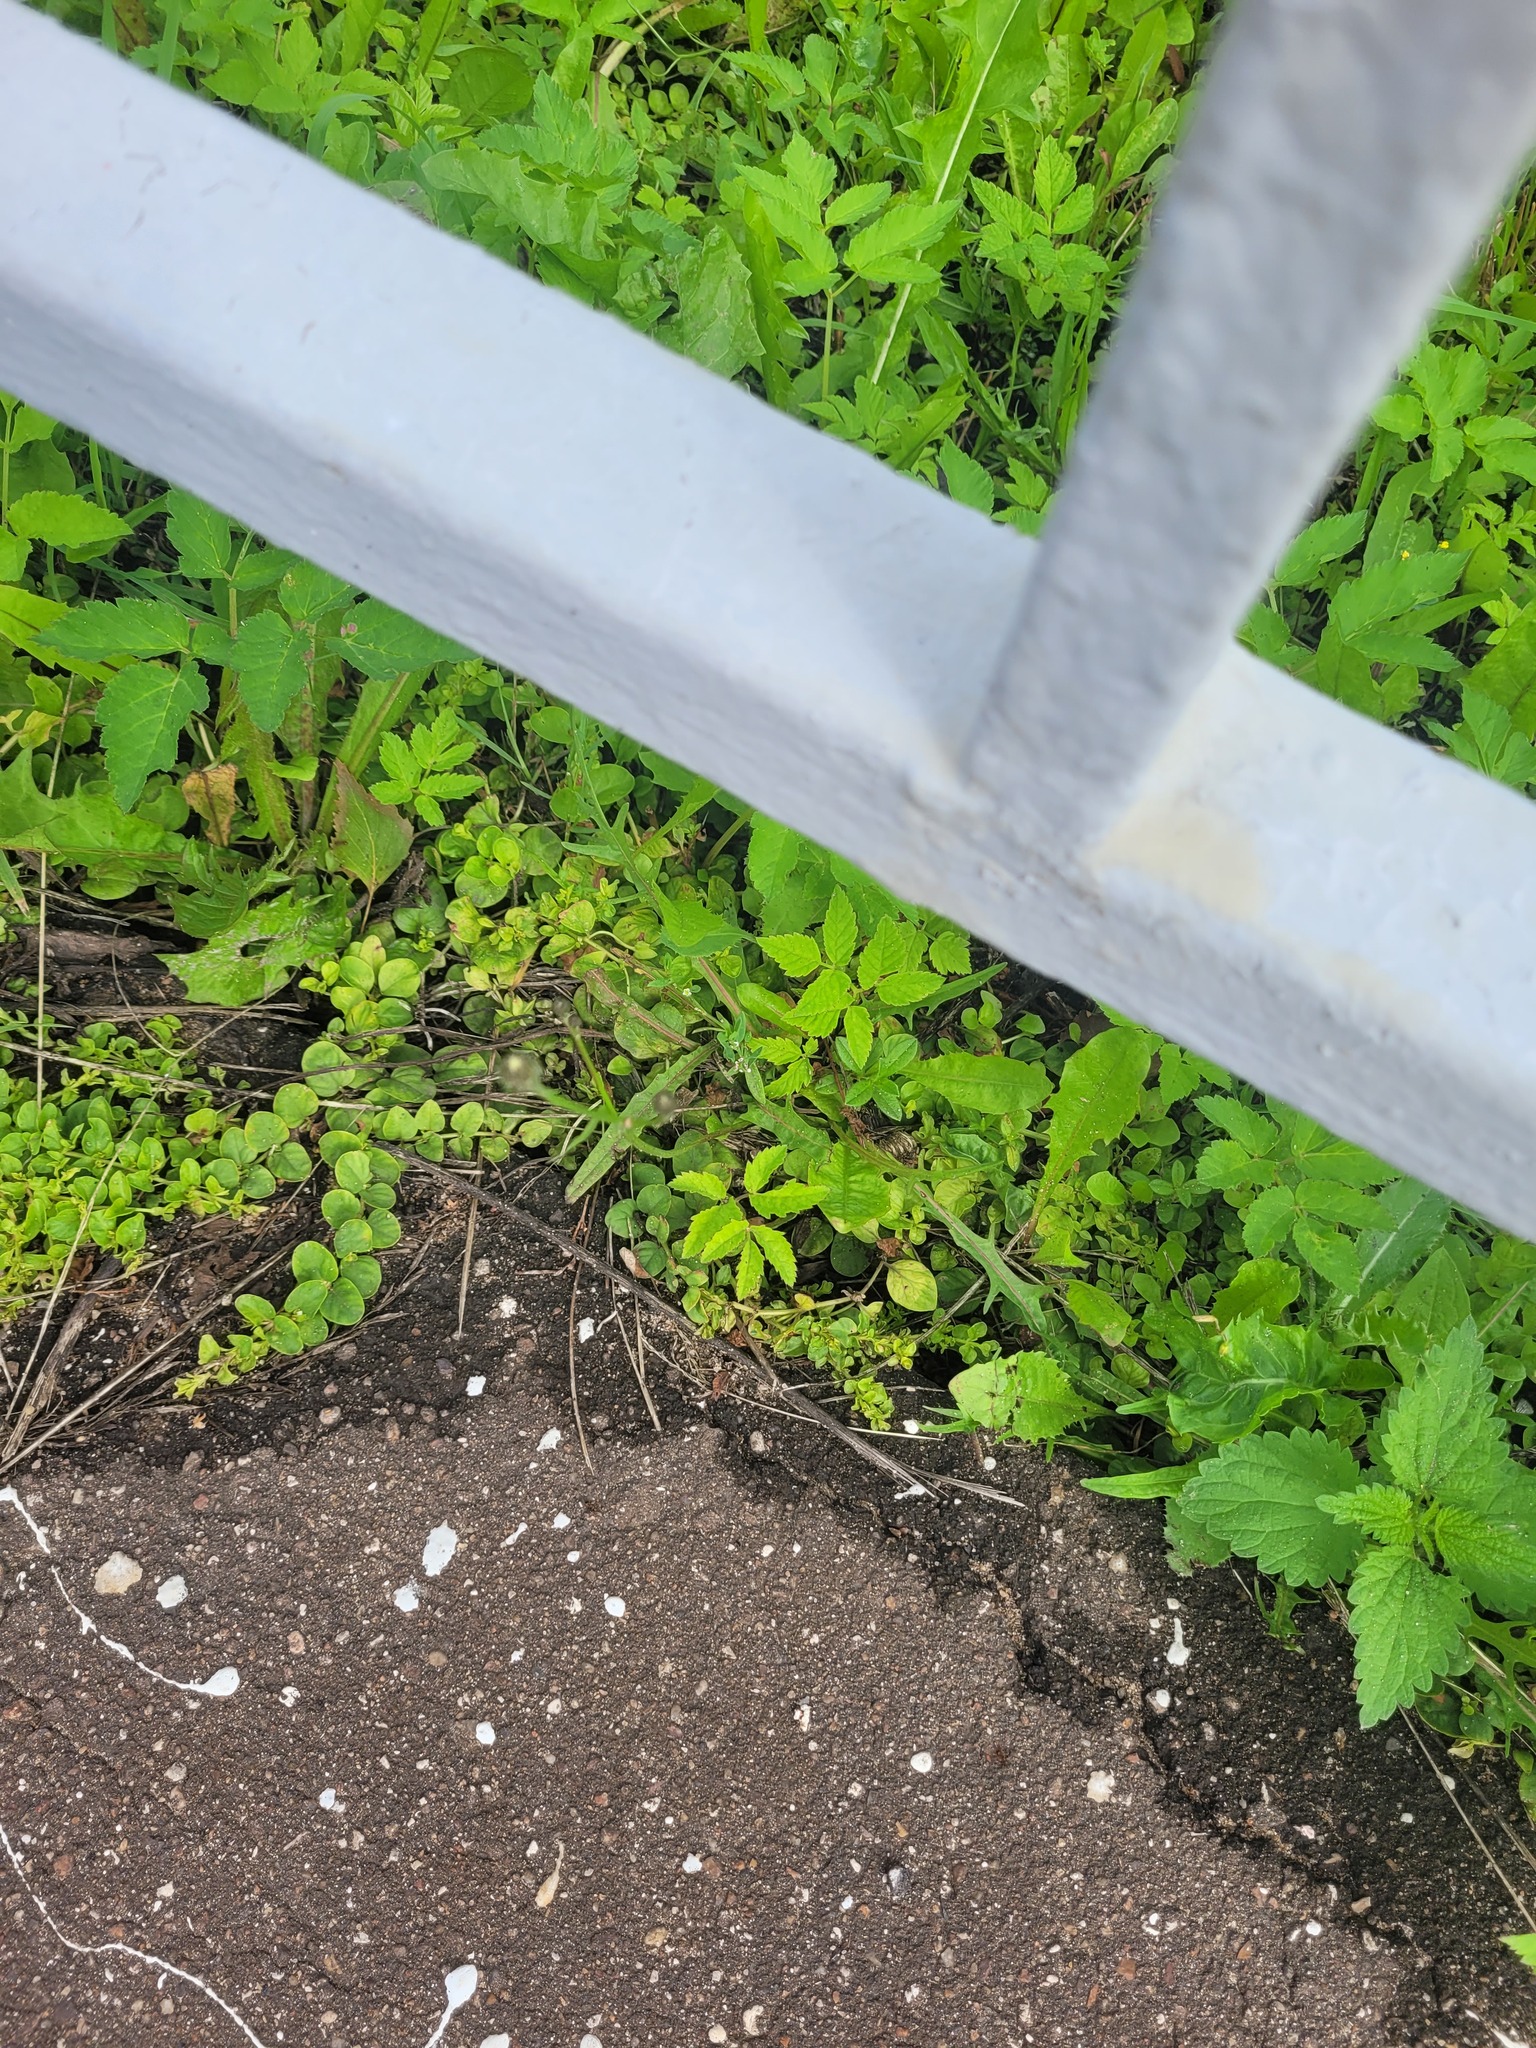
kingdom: Plantae
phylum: Tracheophyta
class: Magnoliopsida
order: Asterales
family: Asteraceae
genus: Scorzoneroides
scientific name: Scorzoneroides autumnalis
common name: Autumn hawkbit
